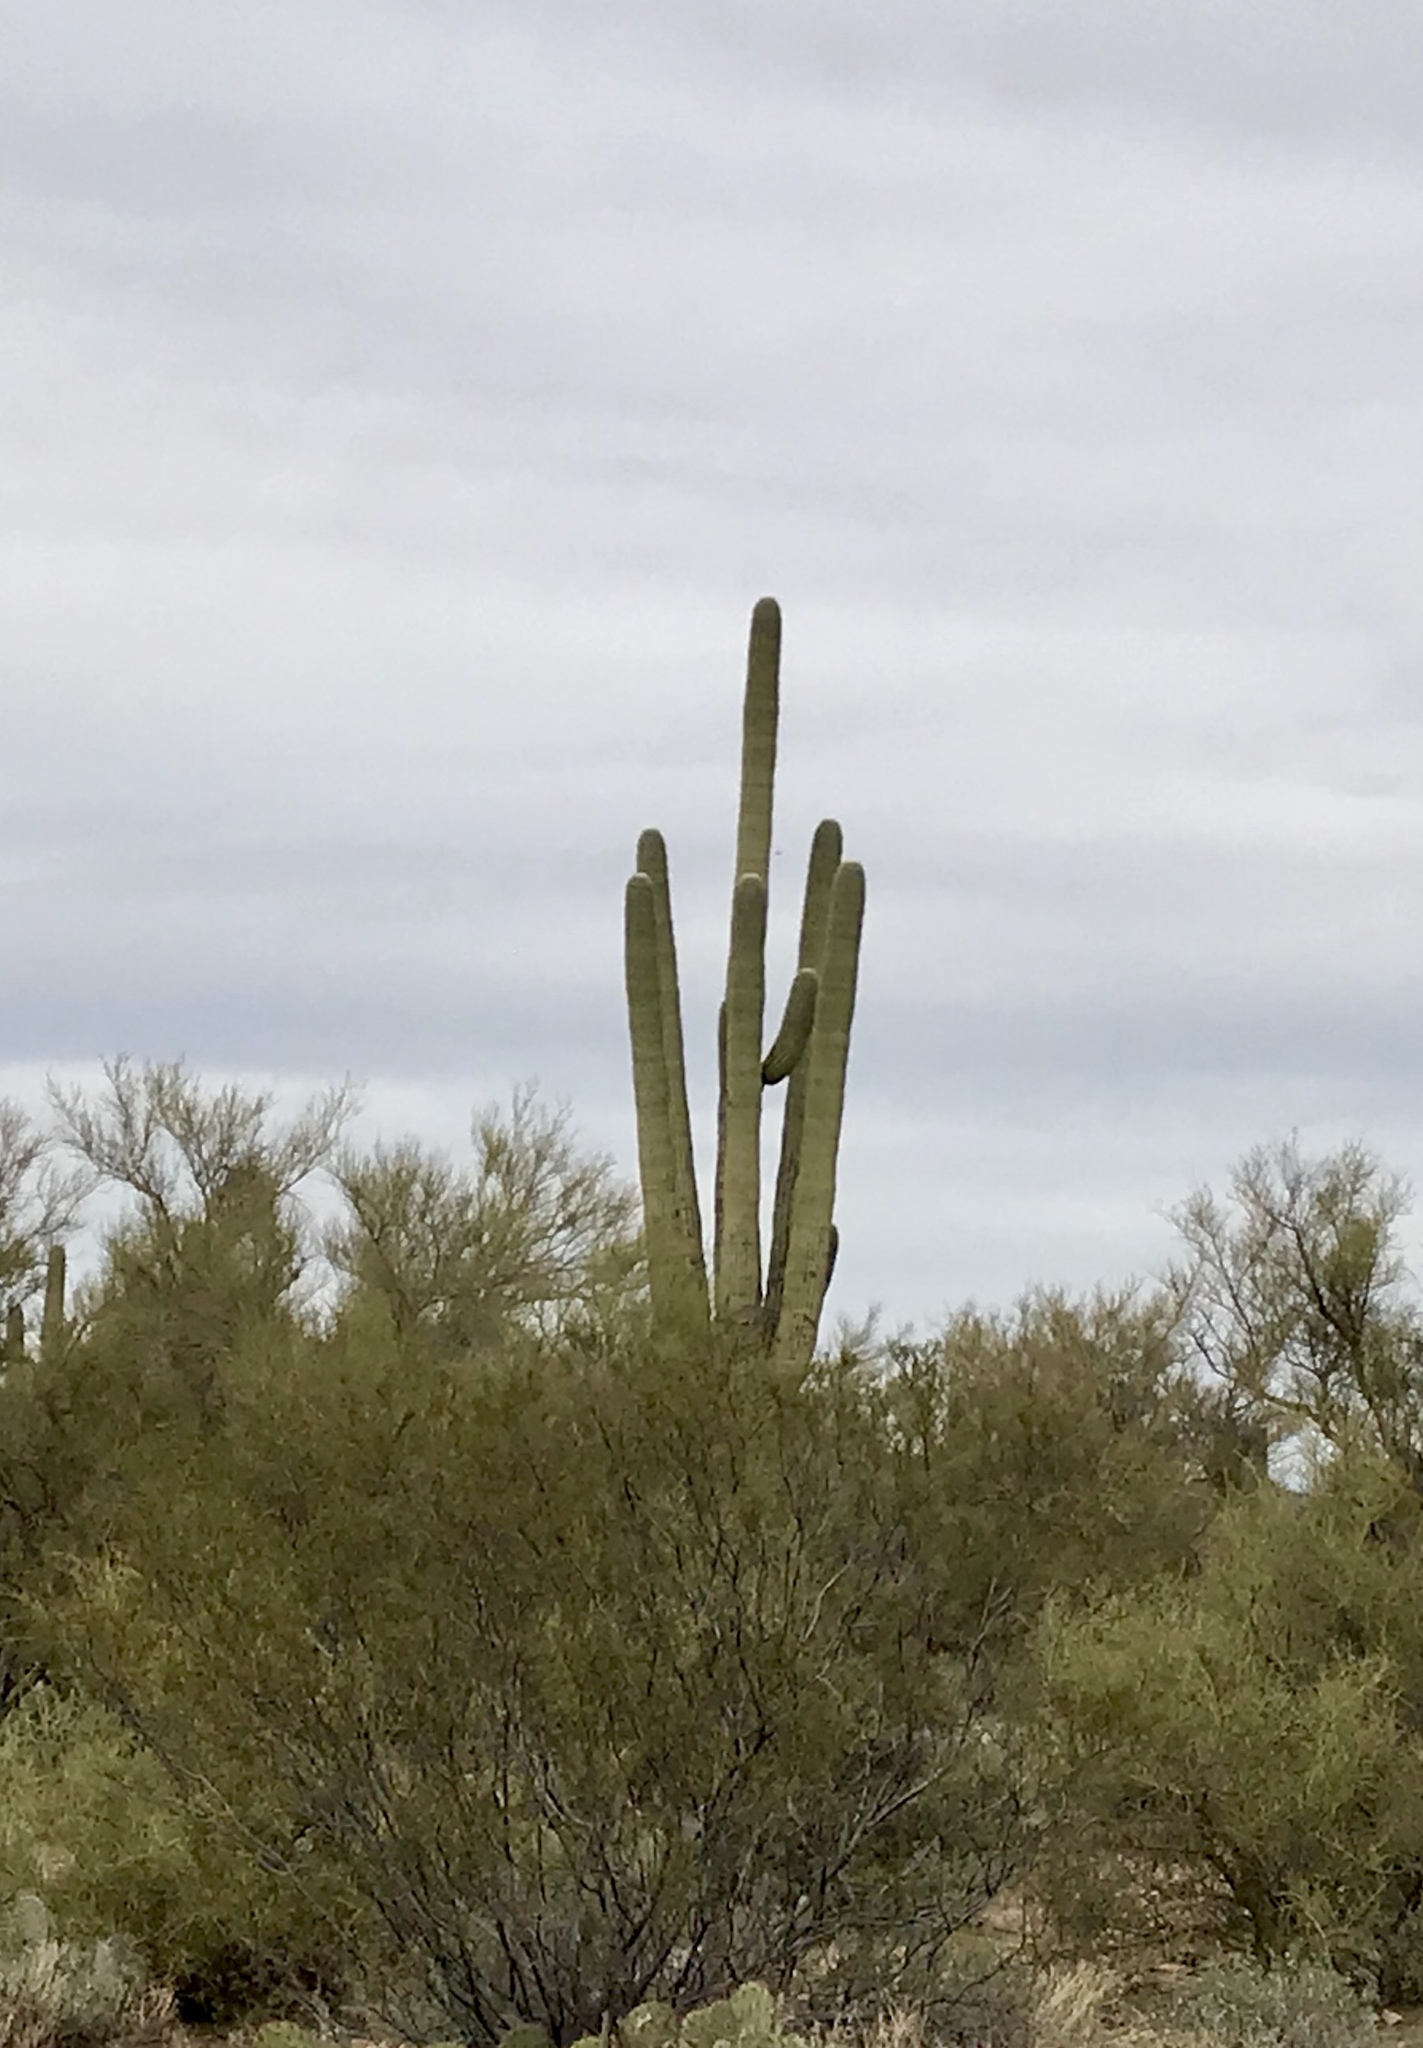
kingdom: Plantae
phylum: Tracheophyta
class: Magnoliopsida
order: Caryophyllales
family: Cactaceae
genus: Carnegiea
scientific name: Carnegiea gigantea
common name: Saguaro
